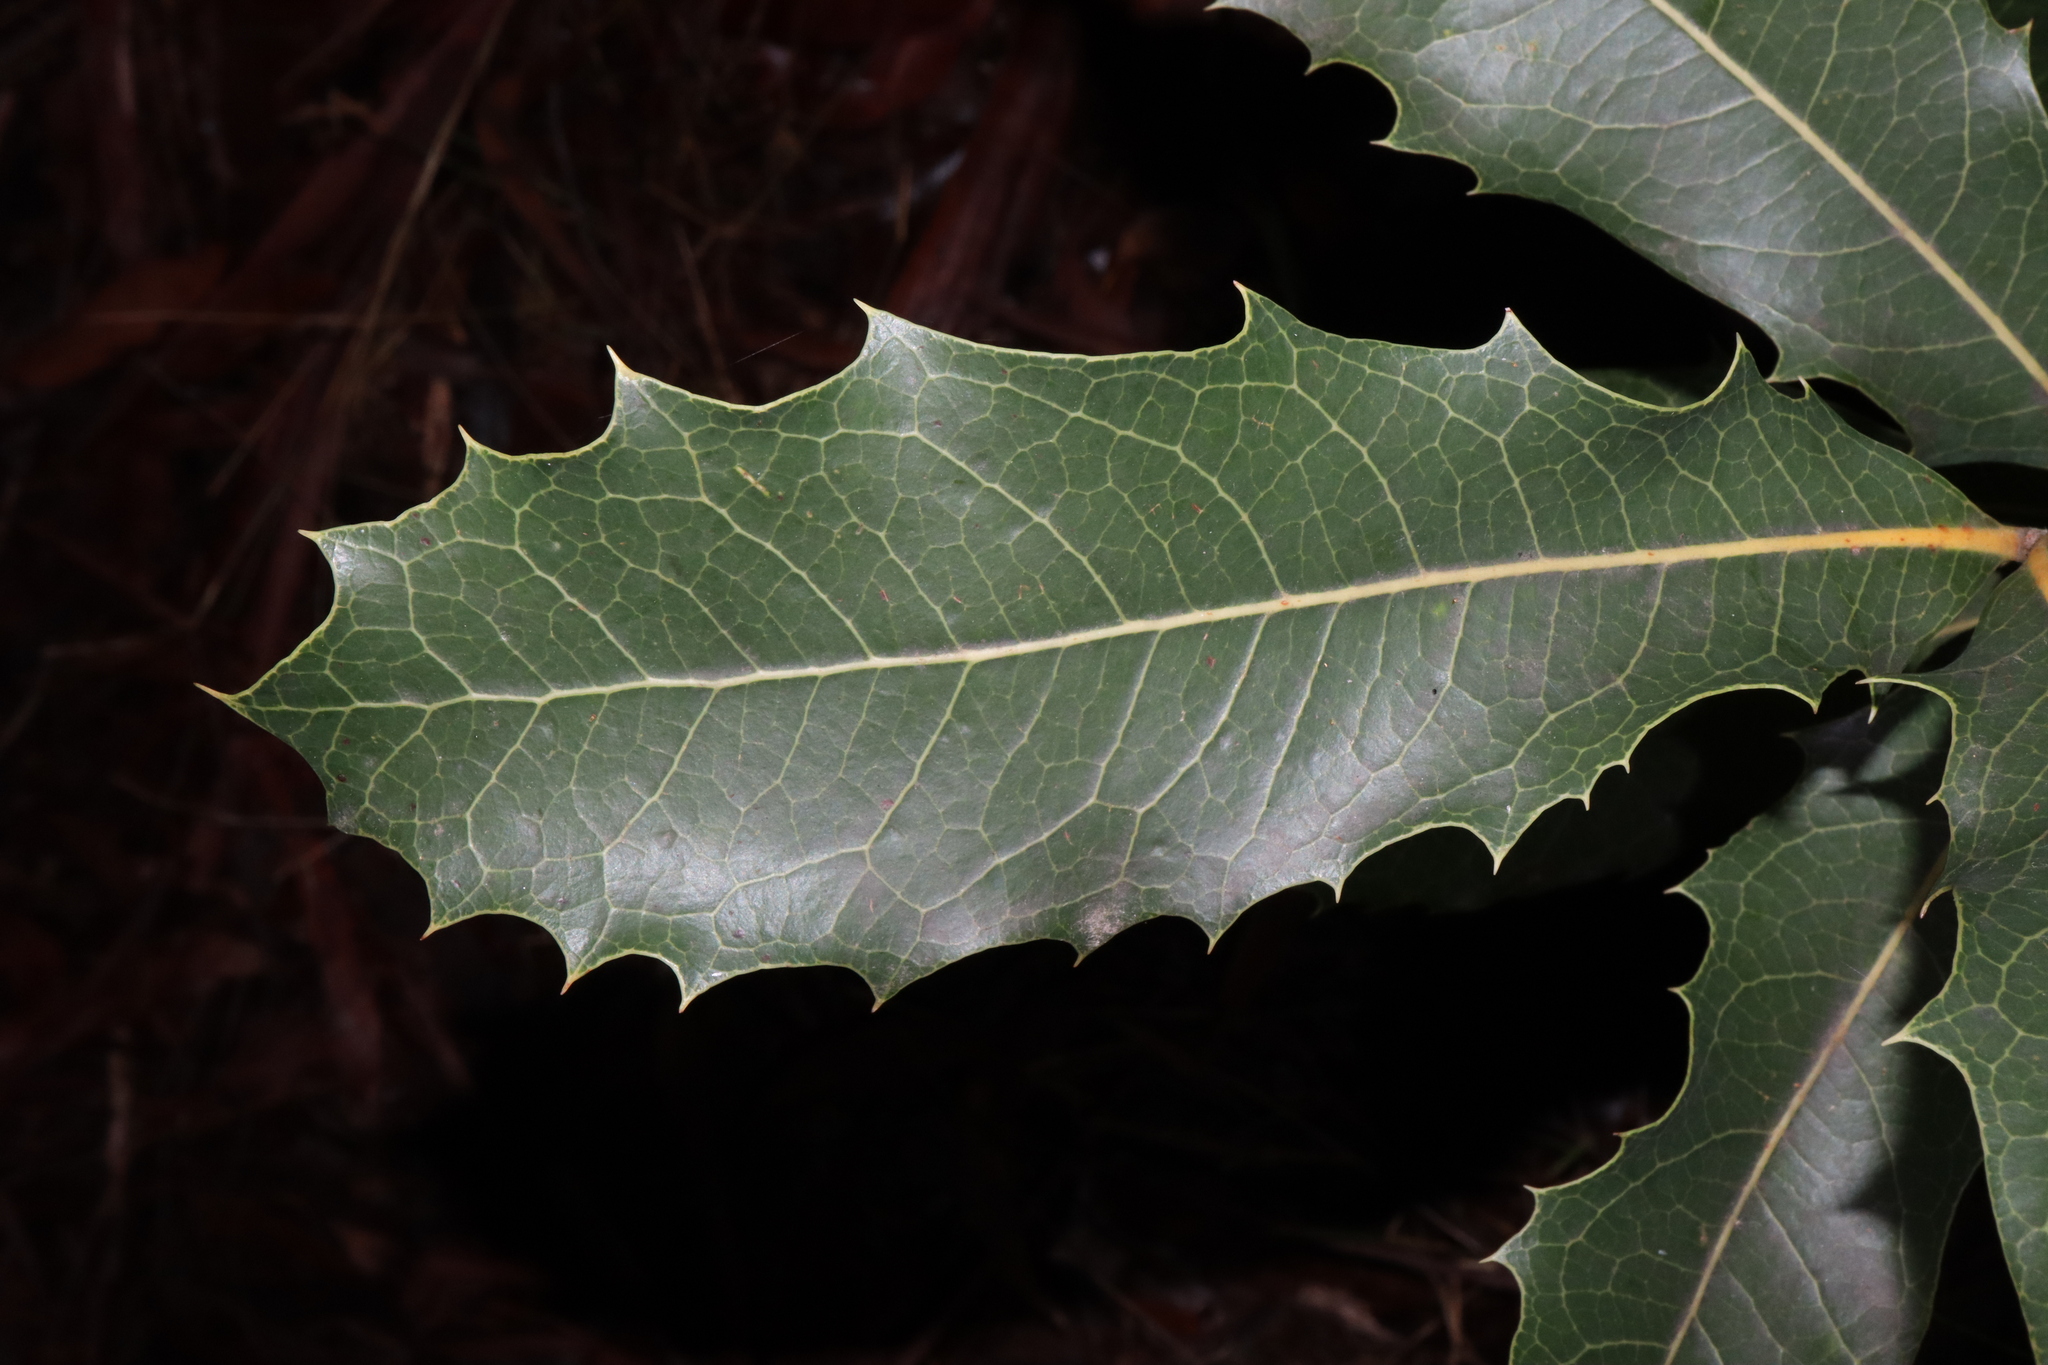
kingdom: Plantae
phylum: Tracheophyta
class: Magnoliopsida
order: Proteales
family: Proteaceae
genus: Xylomelum
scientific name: Xylomelum pyriforme
